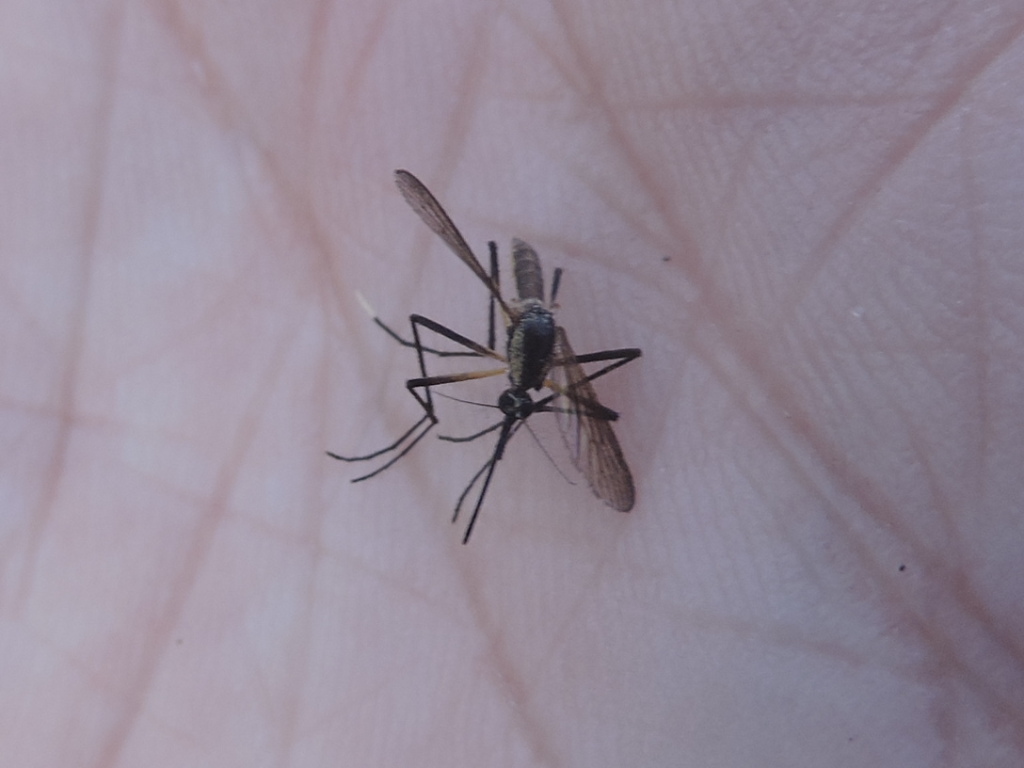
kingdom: Animalia
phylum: Arthropoda
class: Insecta
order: Diptera
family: Culicidae
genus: Psorophora
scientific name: Psorophora longipalpus
